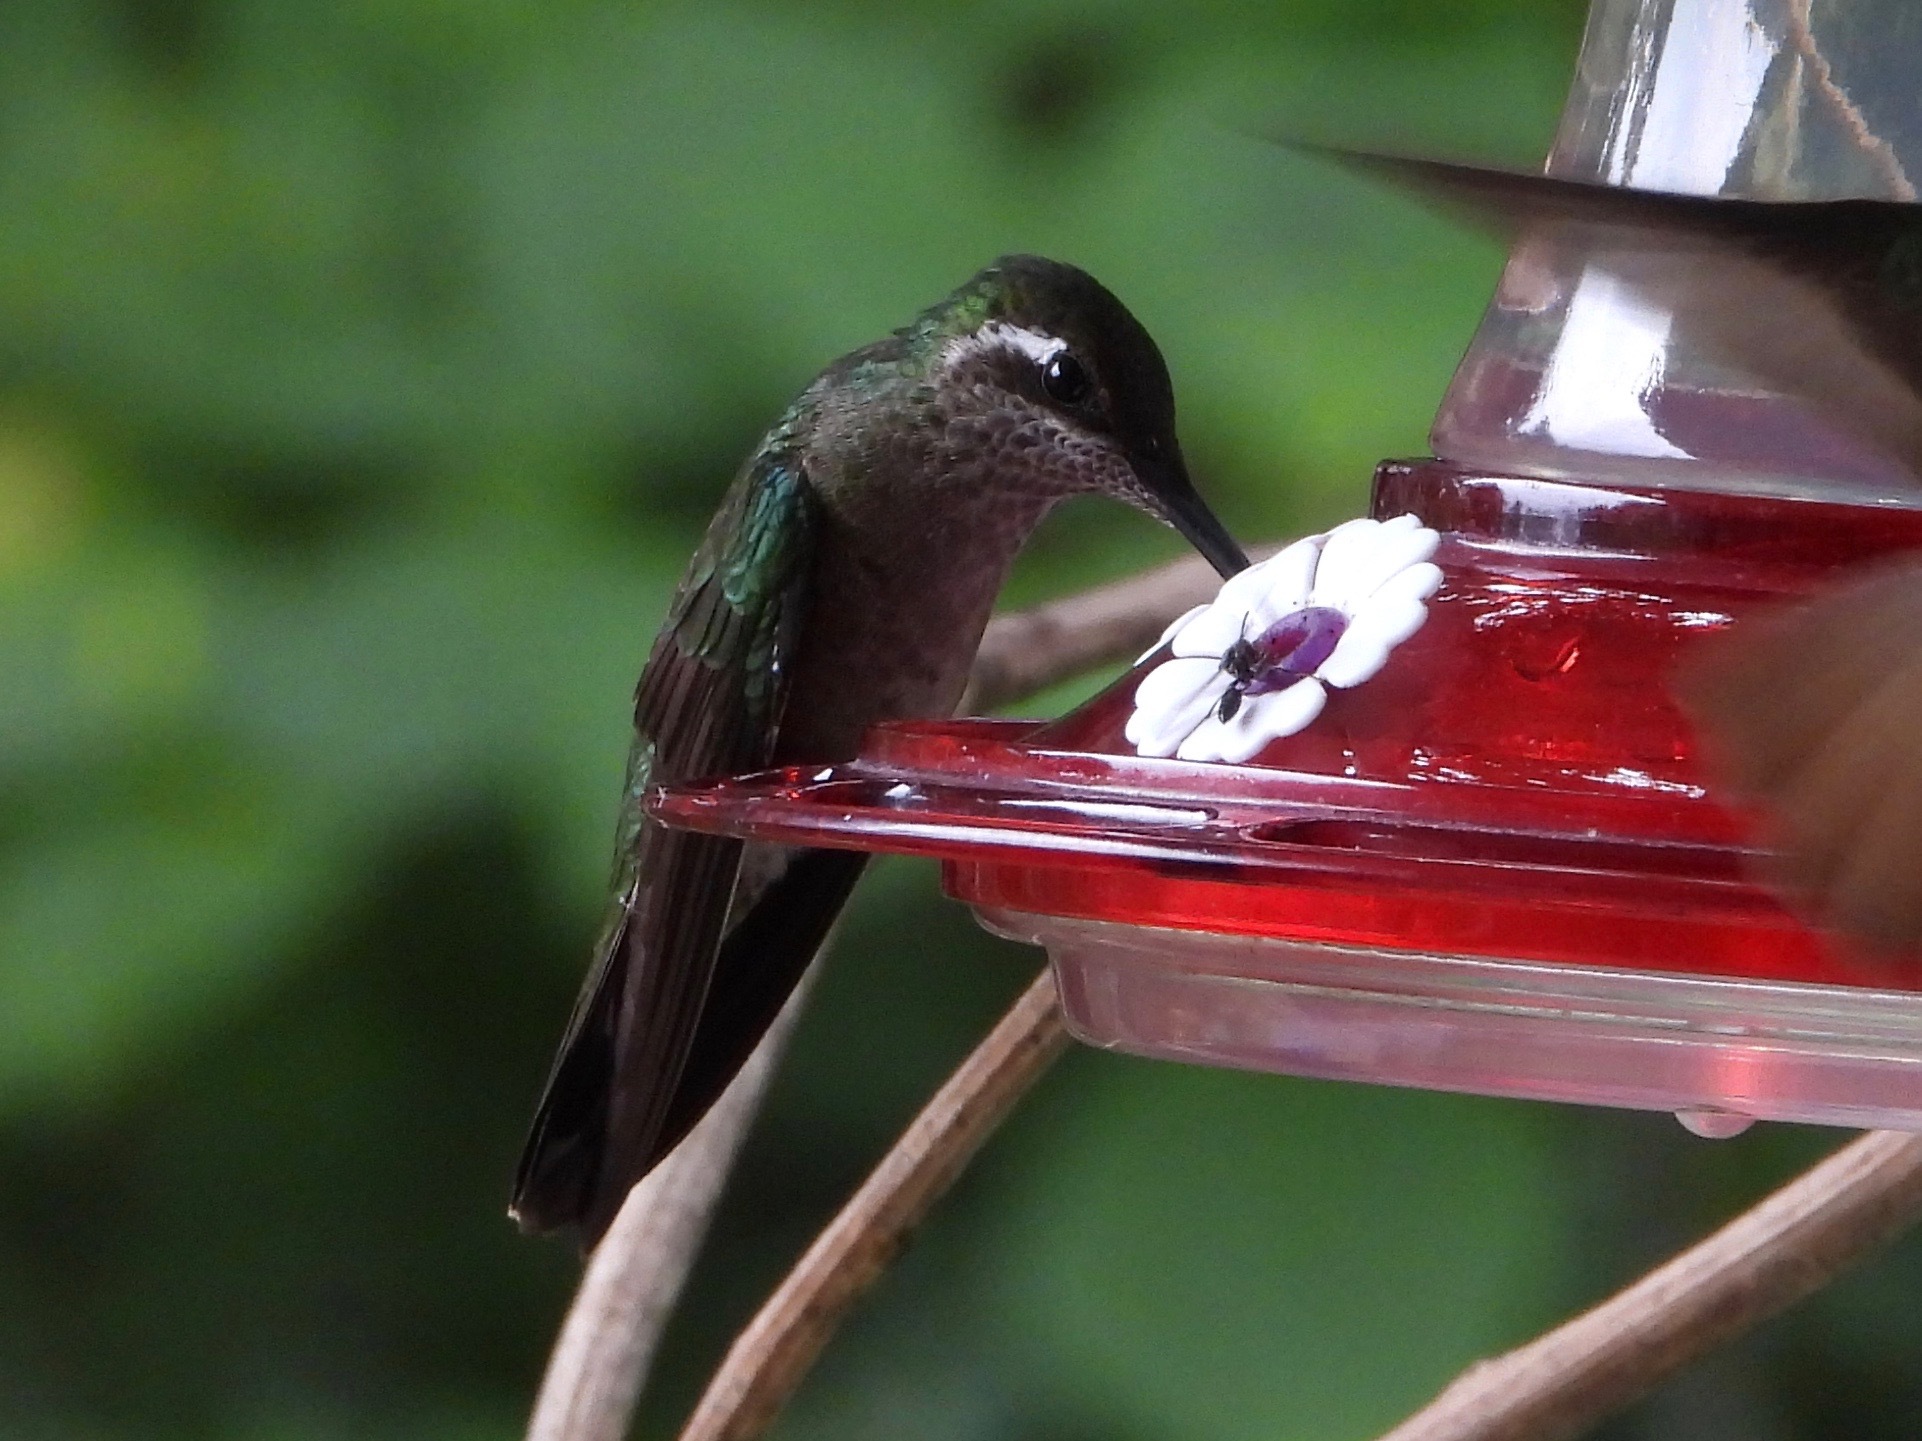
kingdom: Animalia
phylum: Chordata
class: Aves
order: Apodiformes
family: Trochilidae
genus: Eugenes
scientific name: Eugenes fulgens
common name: Magnificent hummingbird
